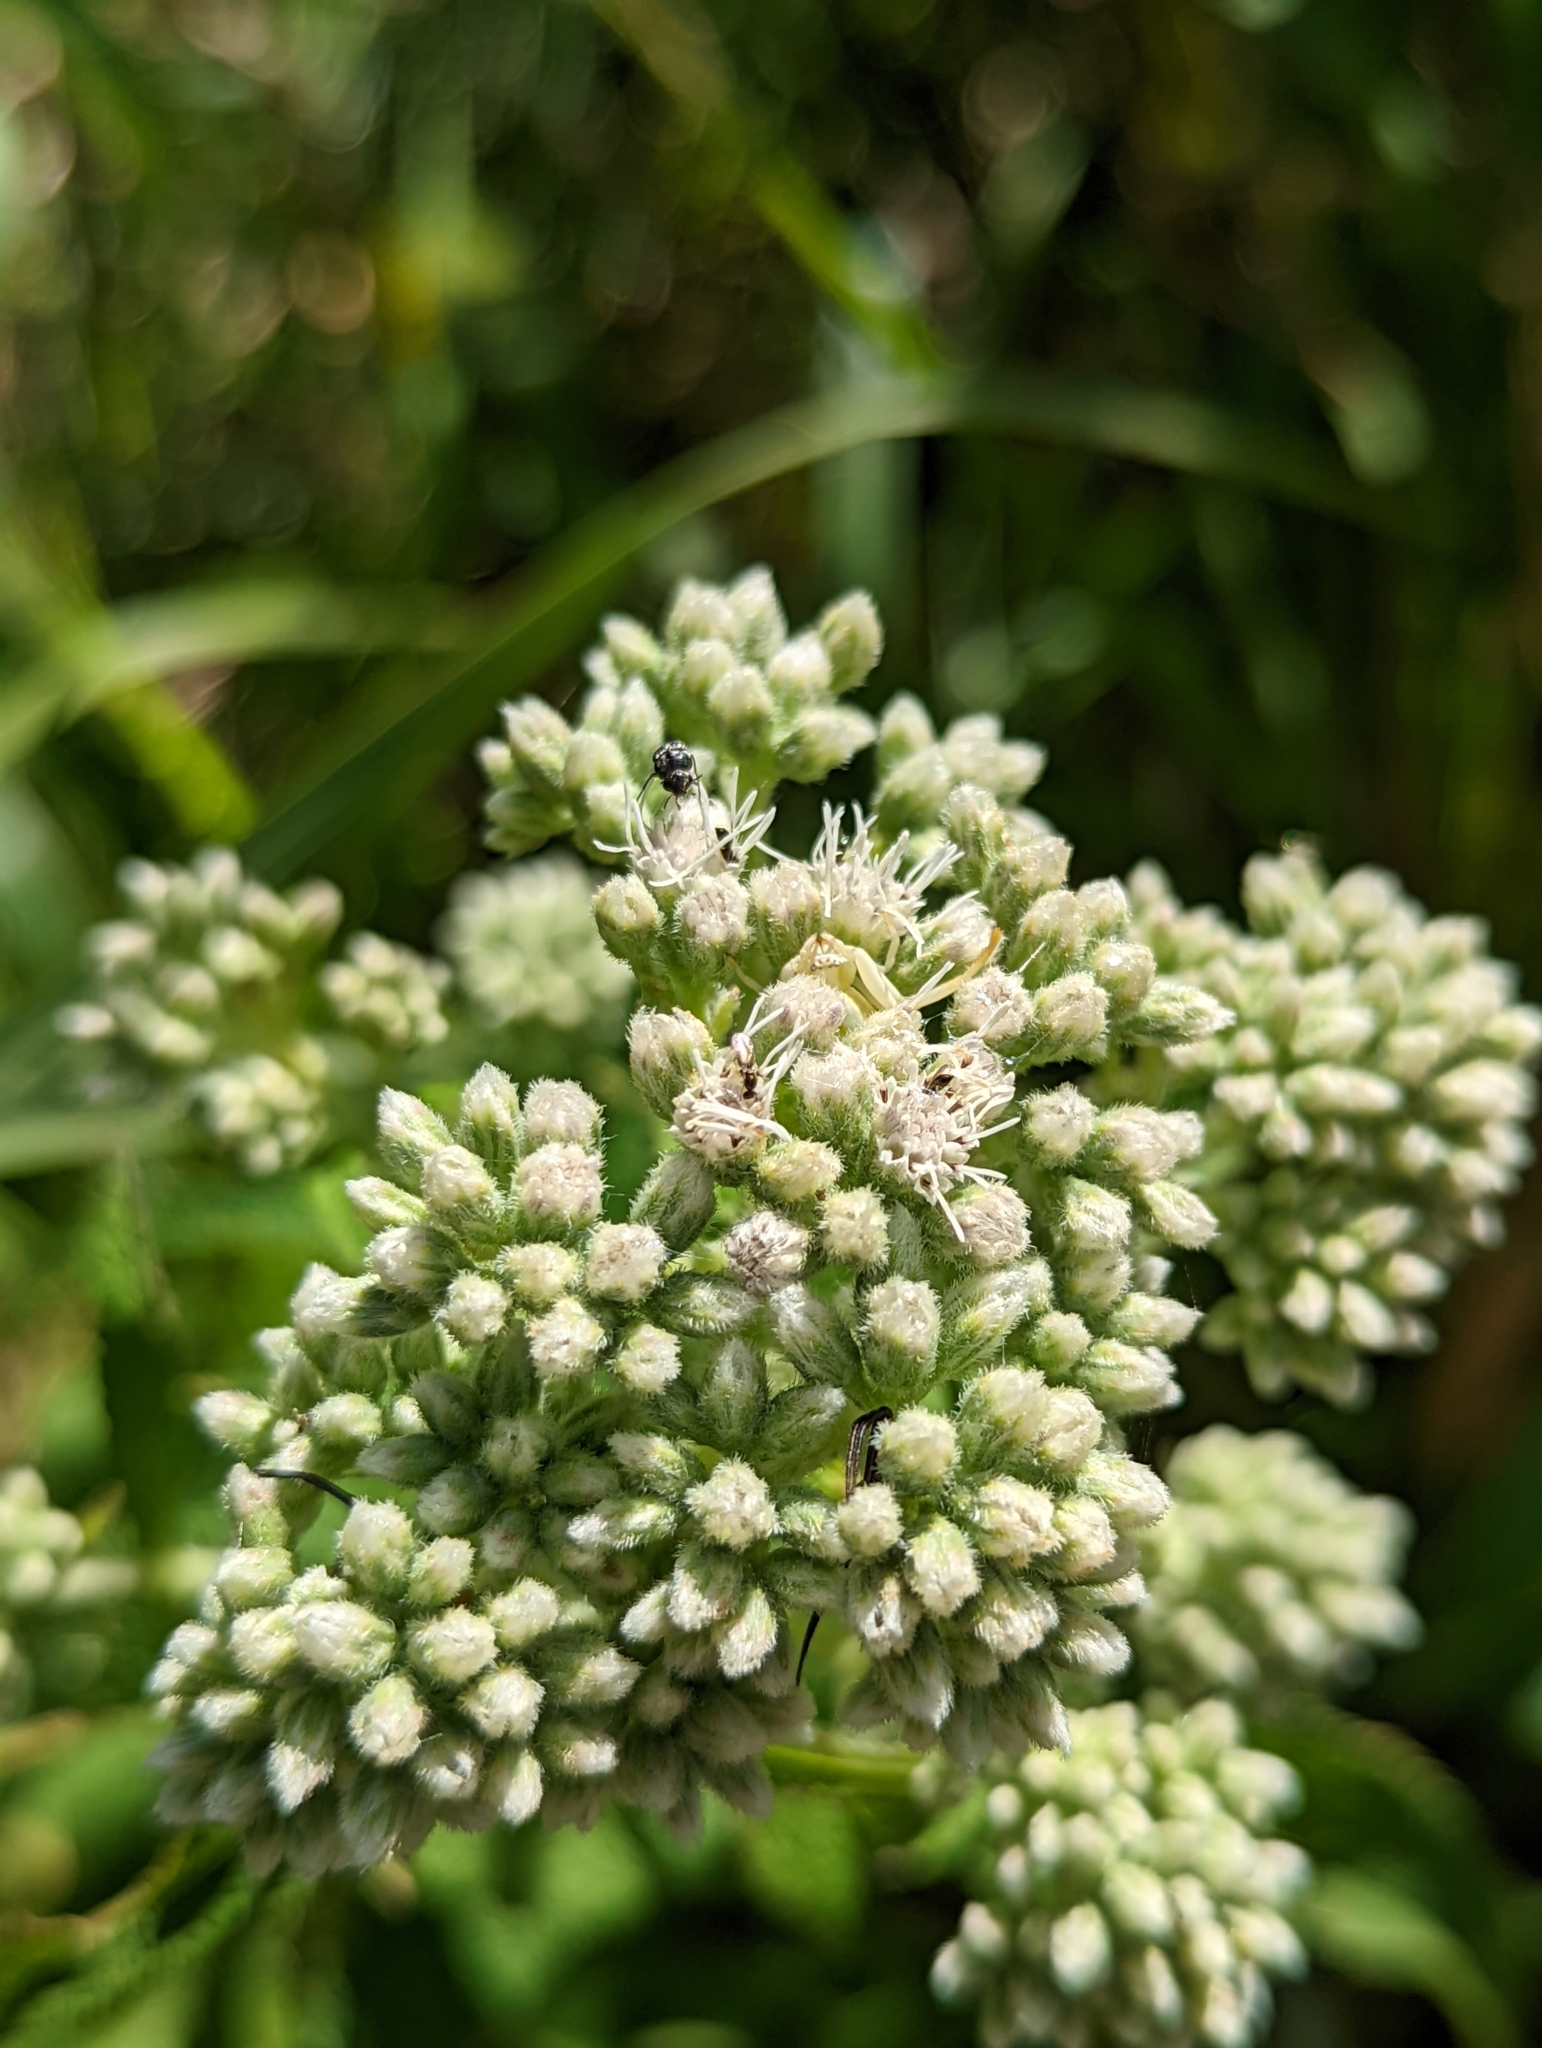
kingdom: Plantae
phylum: Tracheophyta
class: Magnoliopsida
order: Asterales
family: Asteraceae
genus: Eupatorium
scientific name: Eupatorium perfoliatum
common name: Boneset
